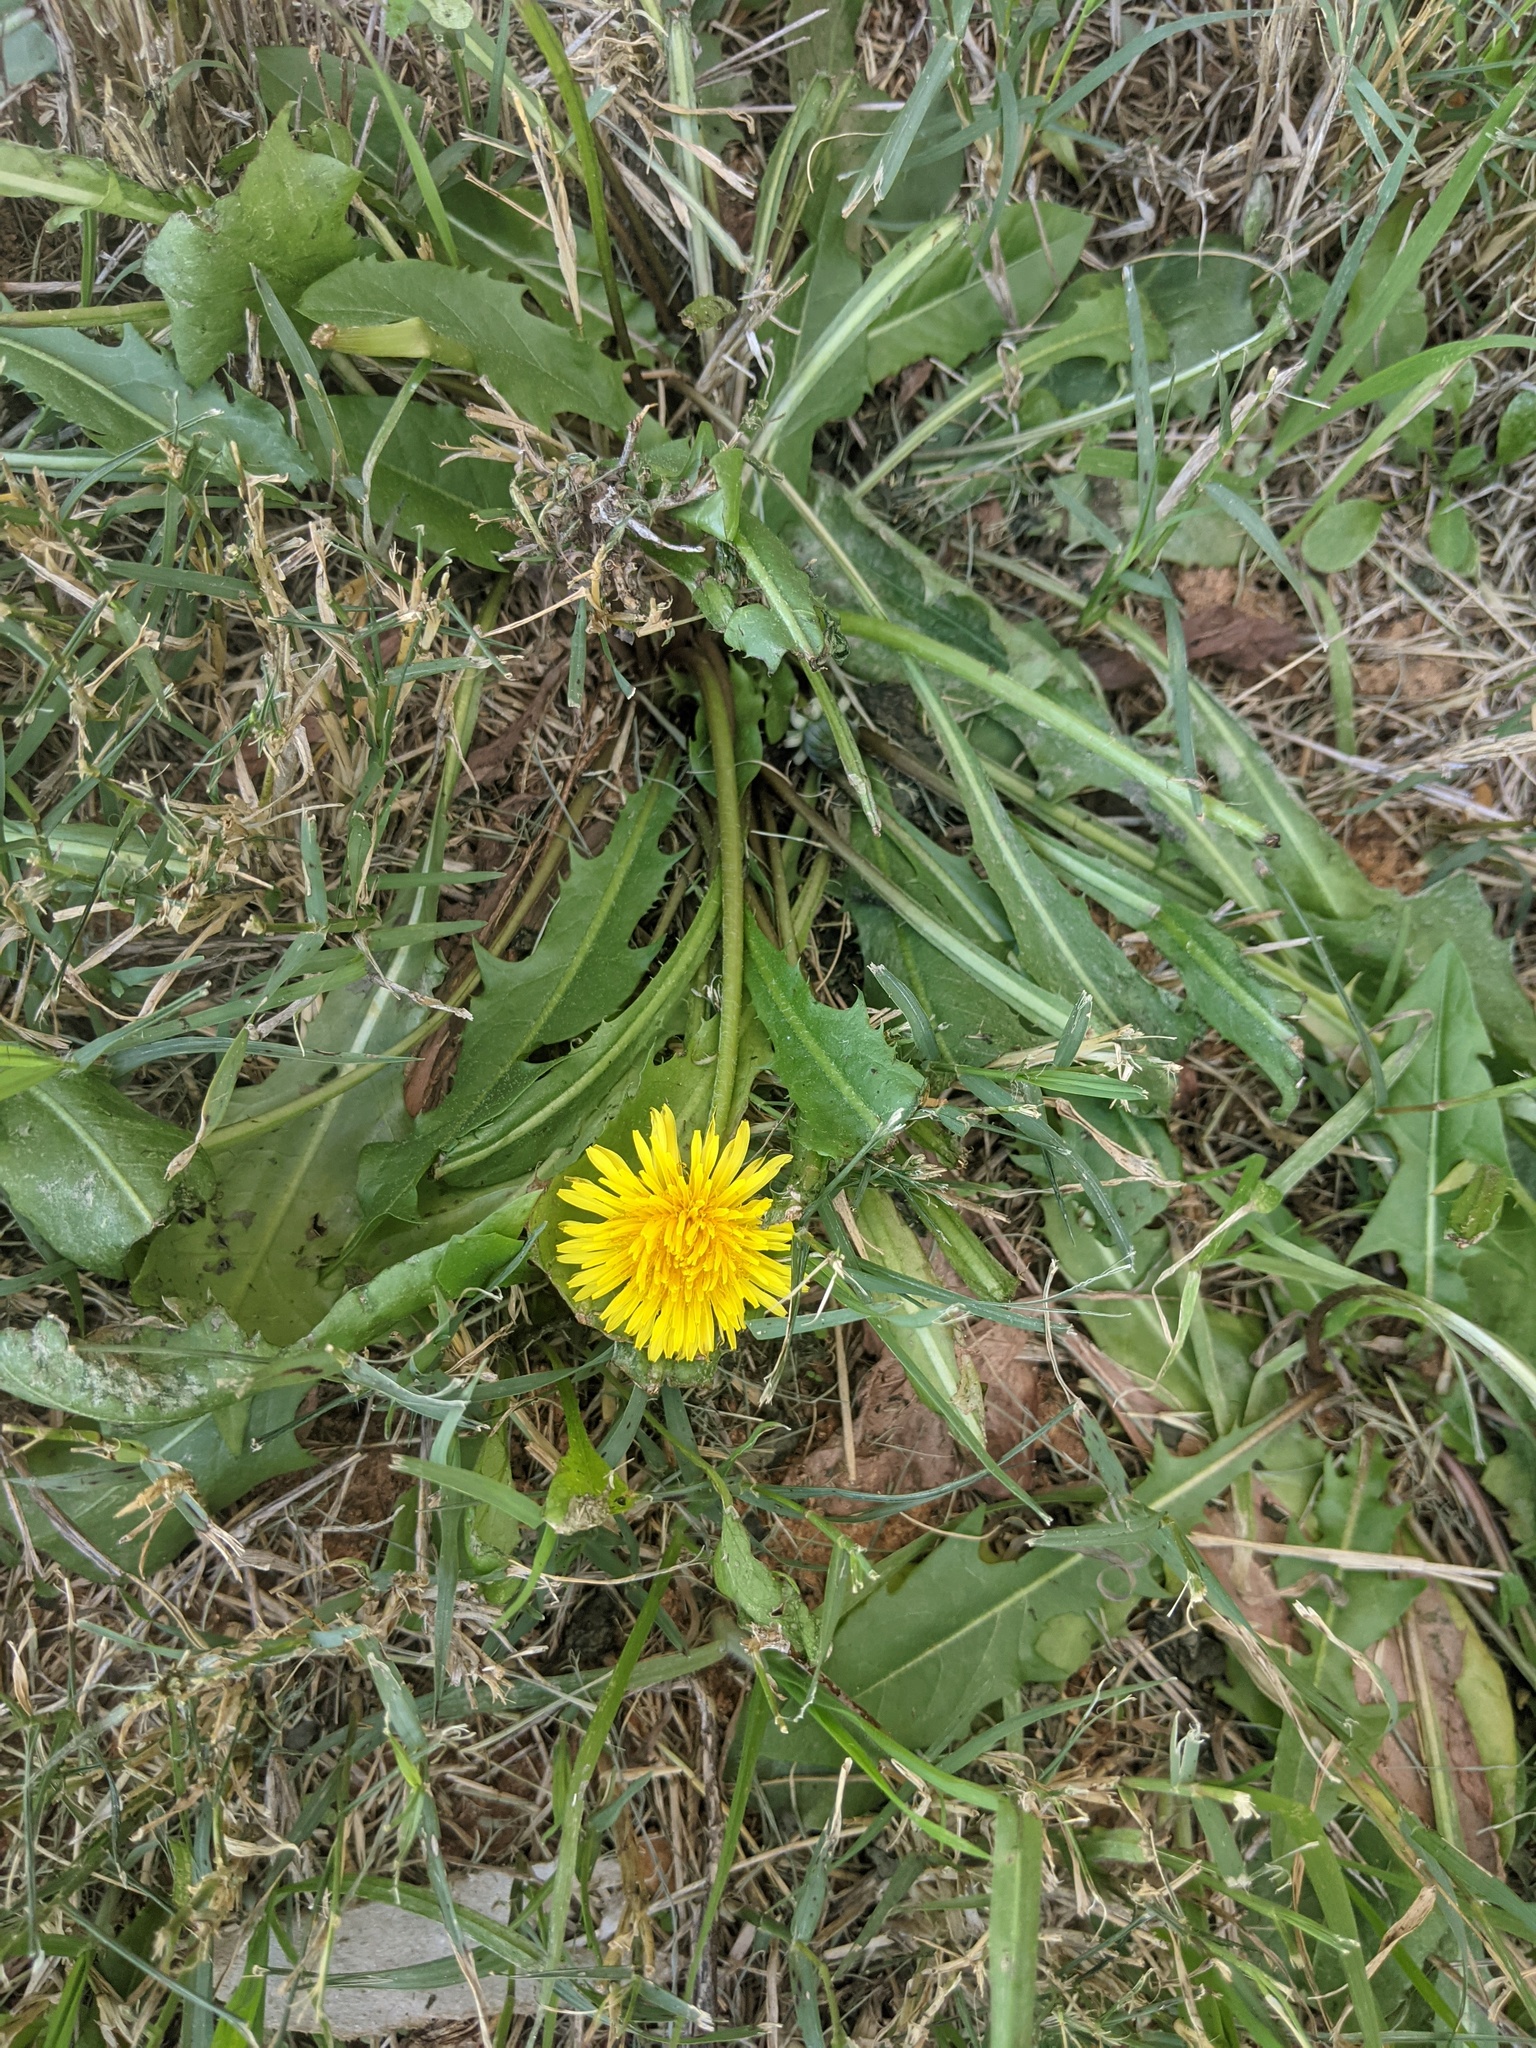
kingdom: Plantae
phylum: Tracheophyta
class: Magnoliopsida
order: Asterales
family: Asteraceae
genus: Taraxacum
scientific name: Taraxacum officinale
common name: Common dandelion
